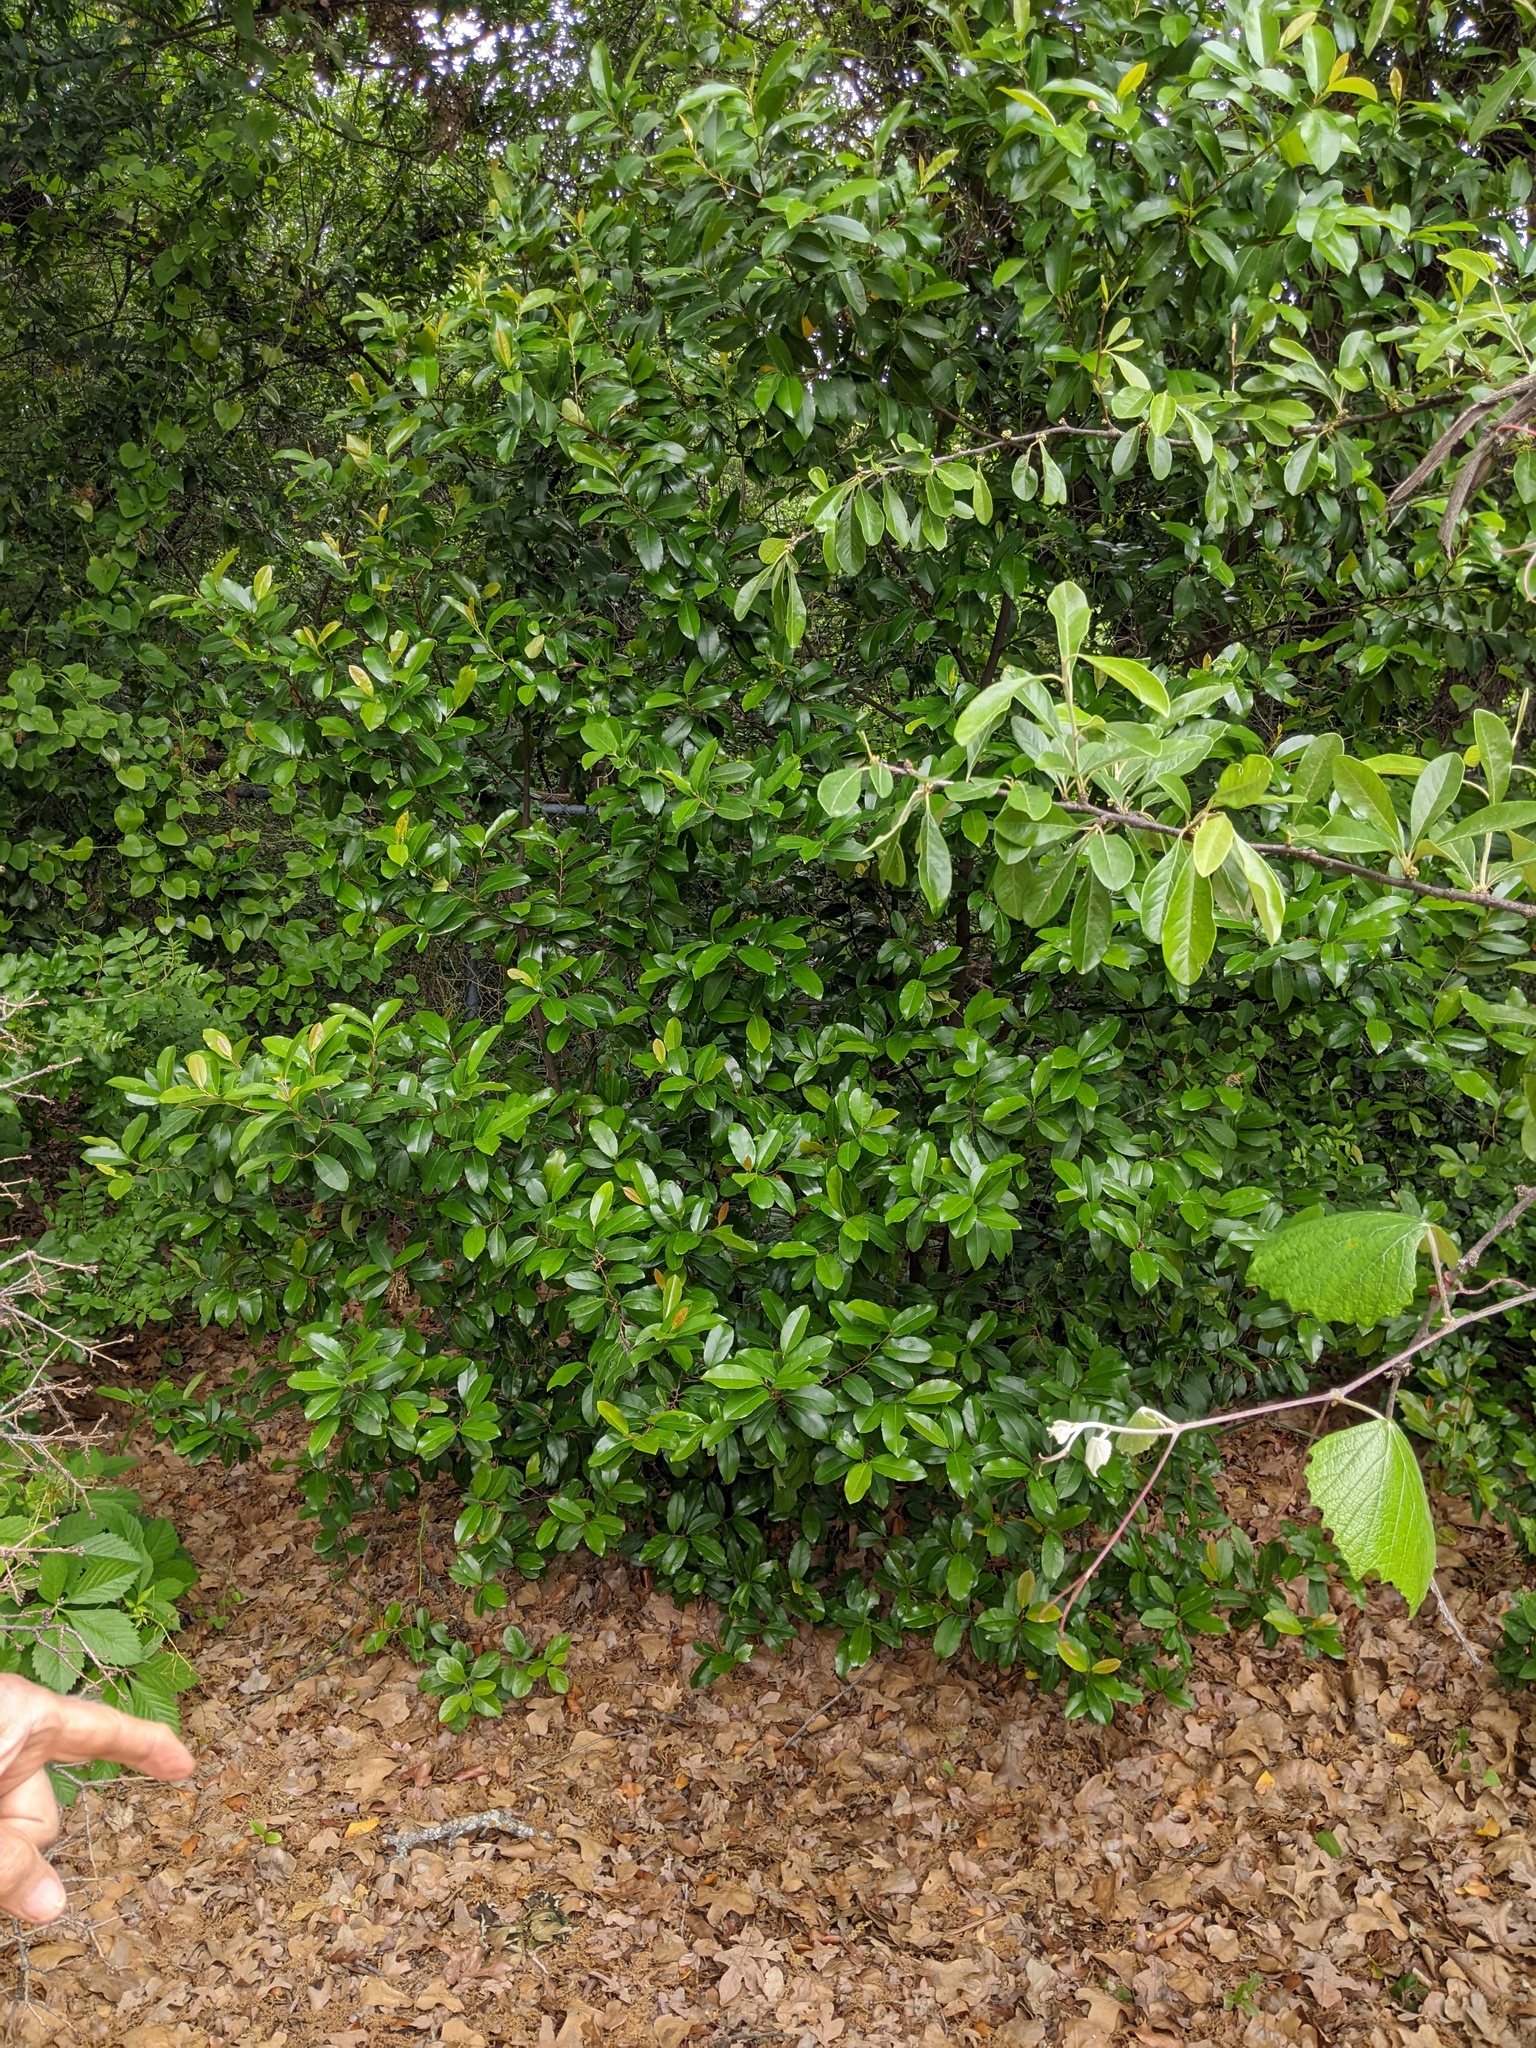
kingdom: Plantae
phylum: Tracheophyta
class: Magnoliopsida
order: Rosales
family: Rosaceae
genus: Prunus
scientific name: Prunus caroliniana
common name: Carolina laurel cherry
